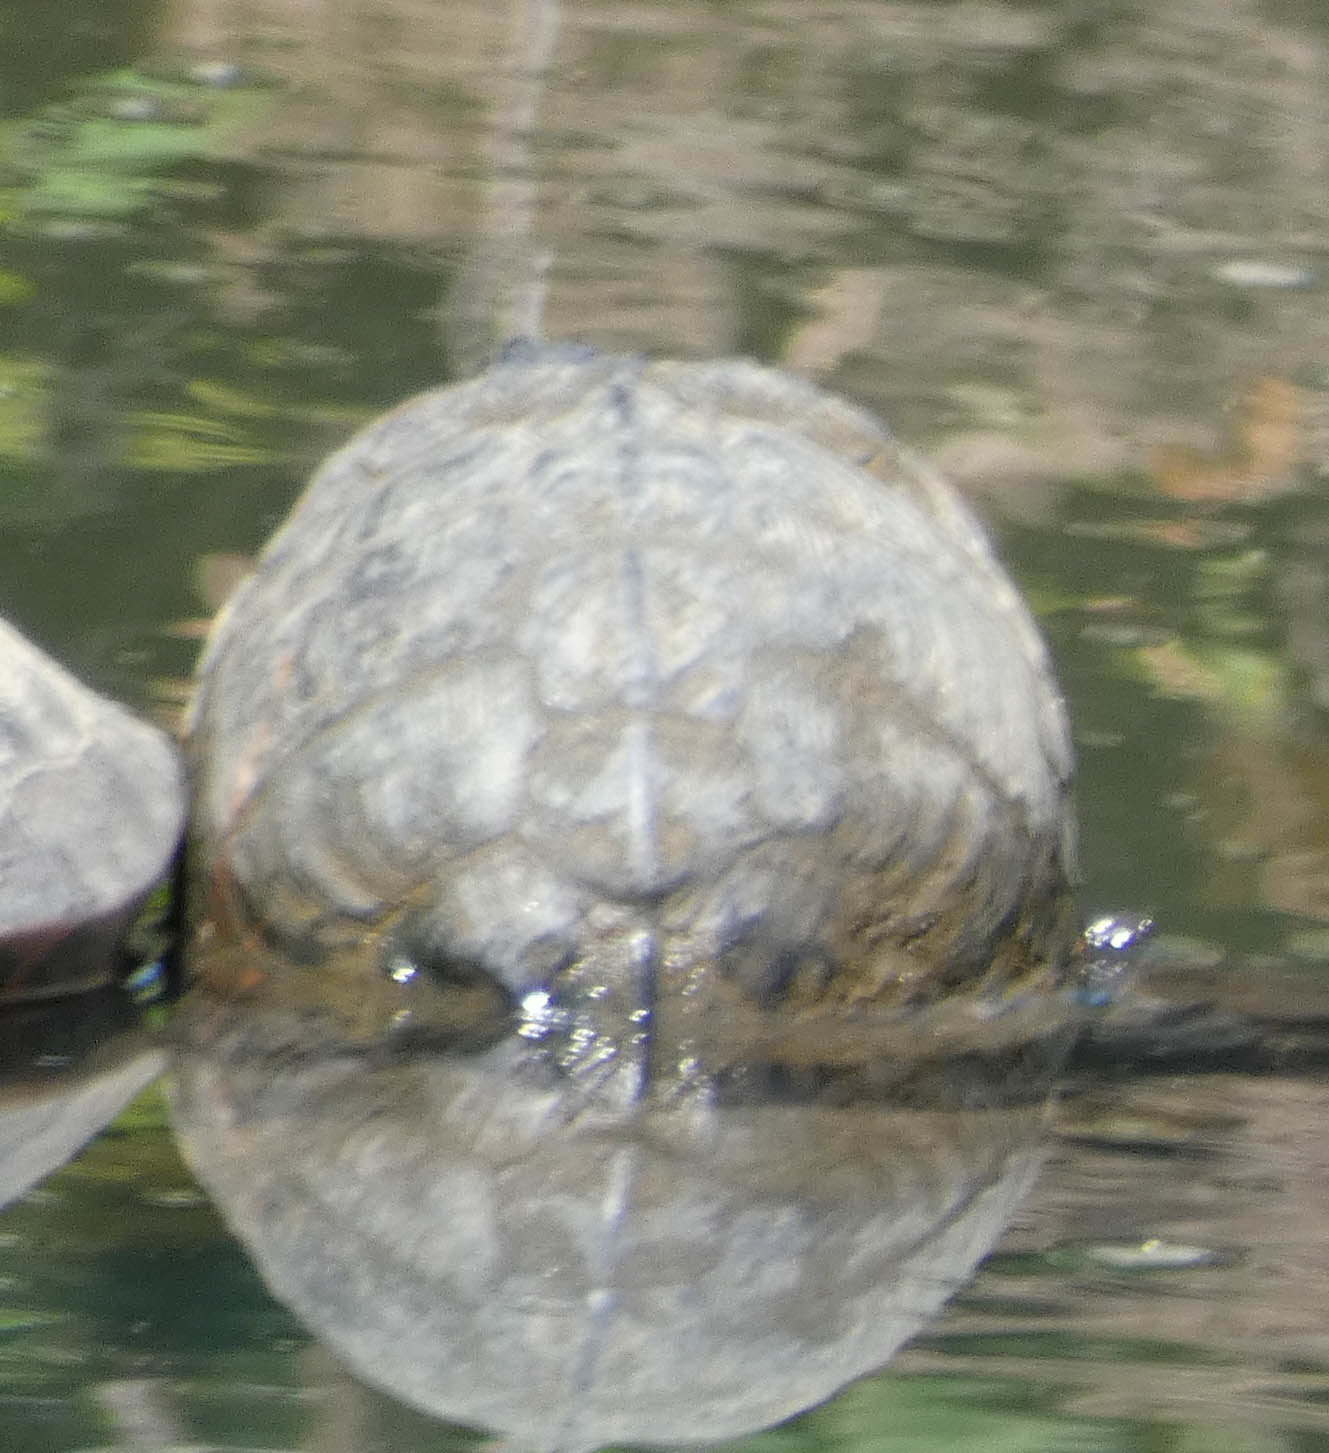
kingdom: Animalia
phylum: Chordata
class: Testudines
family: Emydidae
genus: Trachemys
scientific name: Trachemys scripta
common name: Slider
